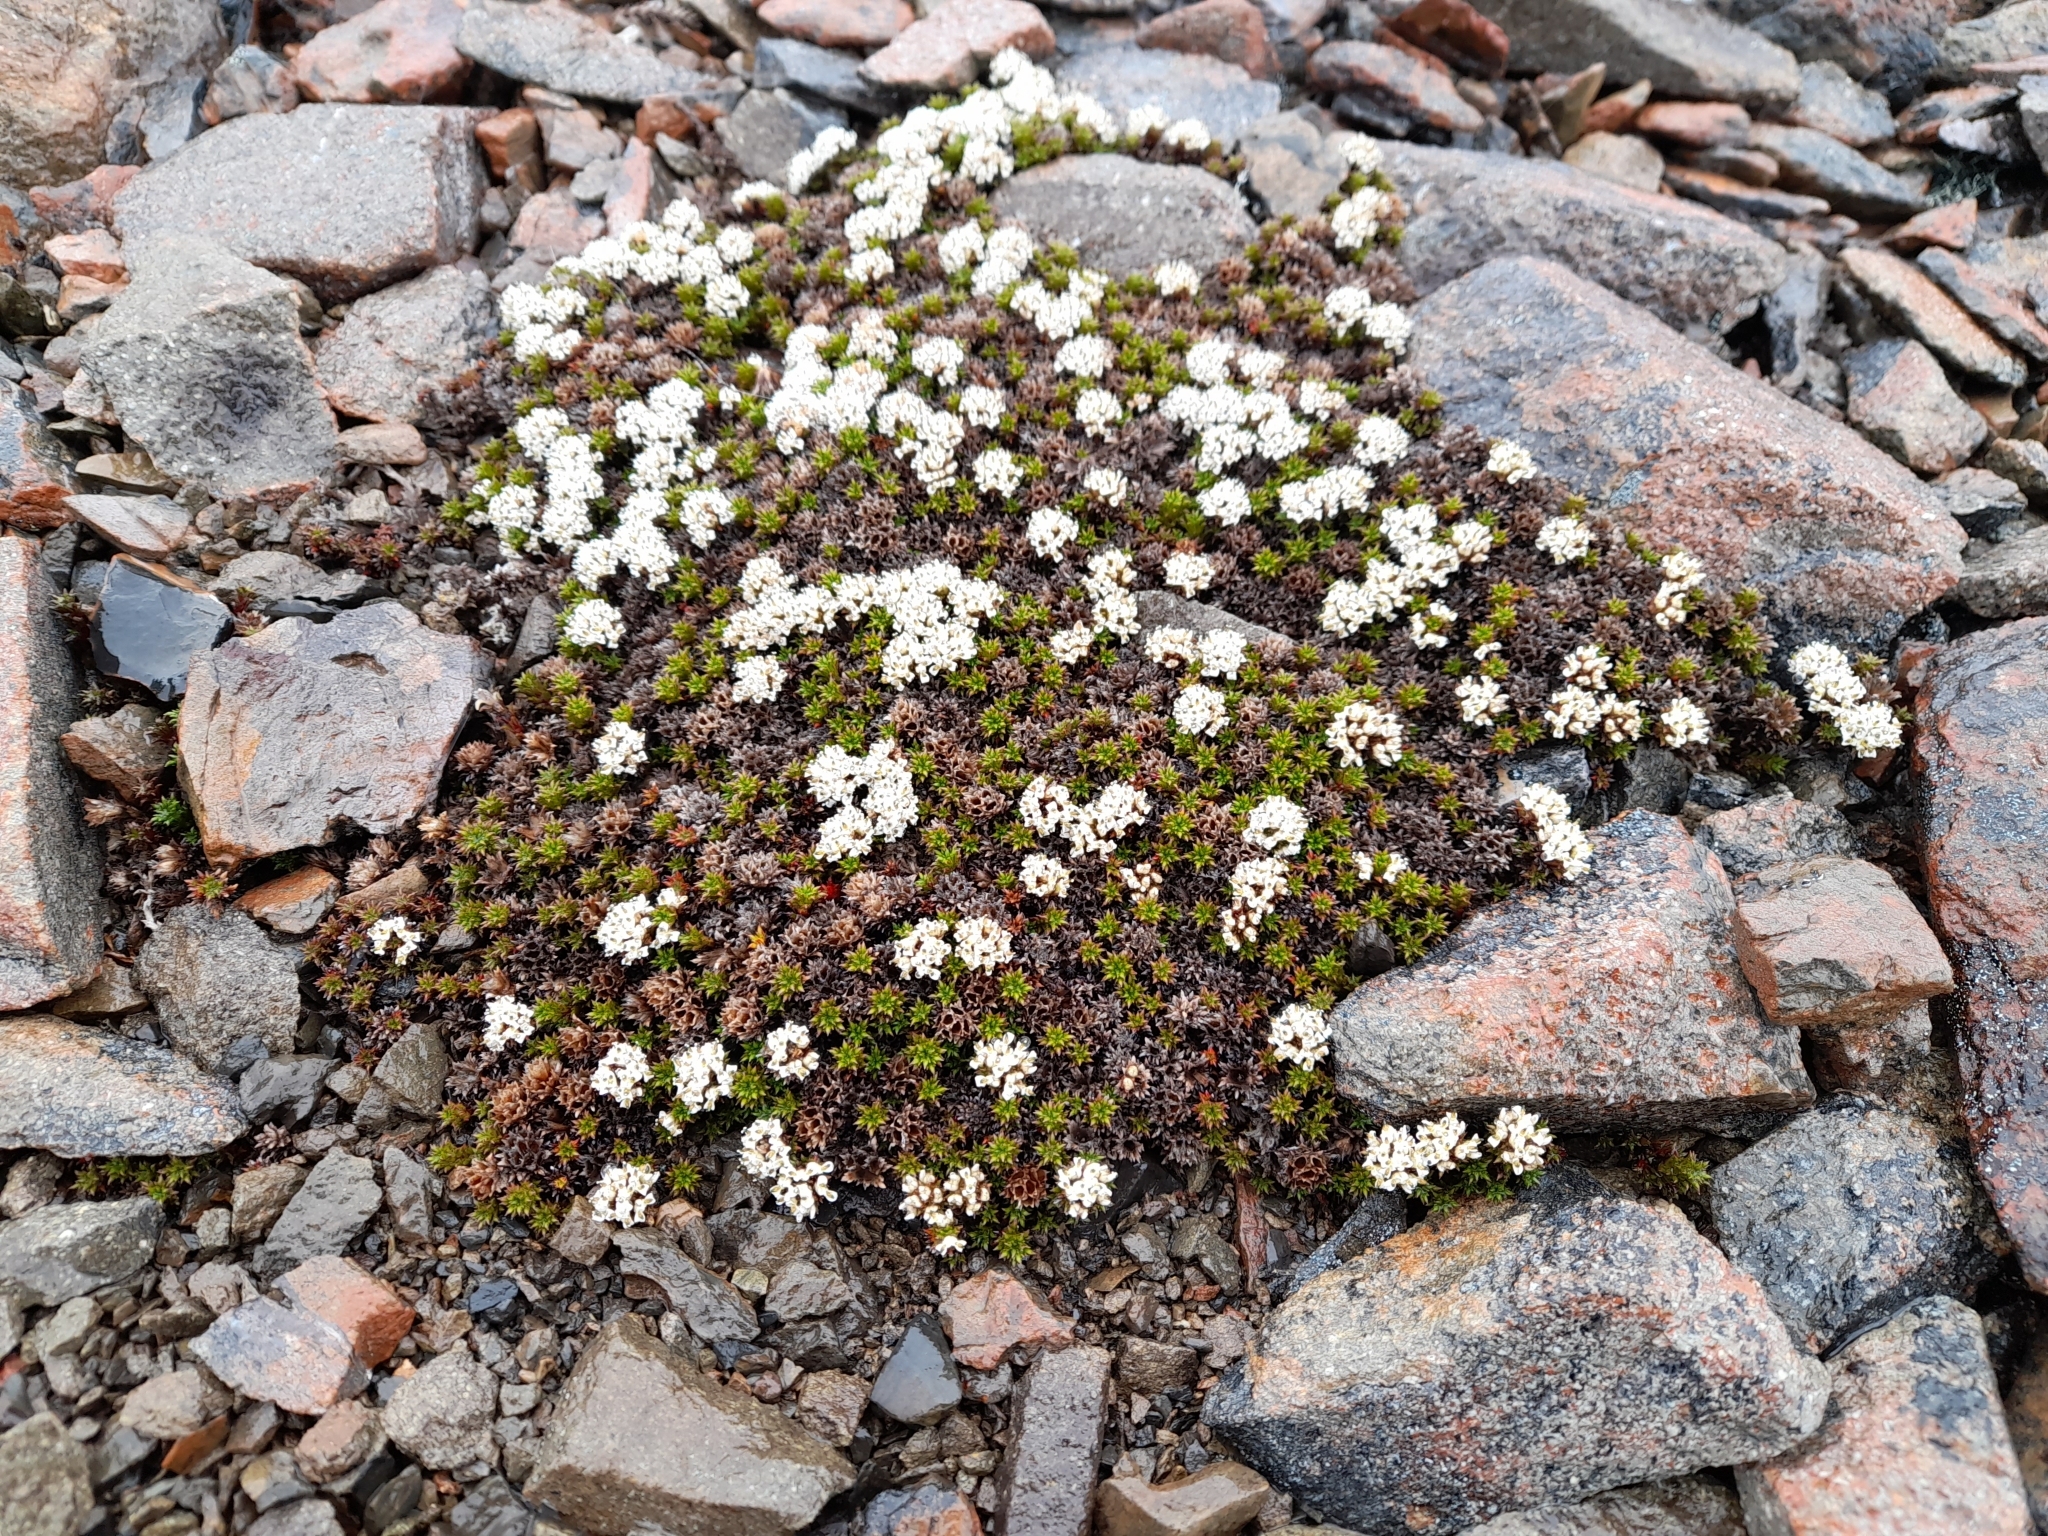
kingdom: Plantae
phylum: Tracheophyta
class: Magnoliopsida
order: Asterales
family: Asteraceae
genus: Nassauvia
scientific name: Nassauvia pygmaea
